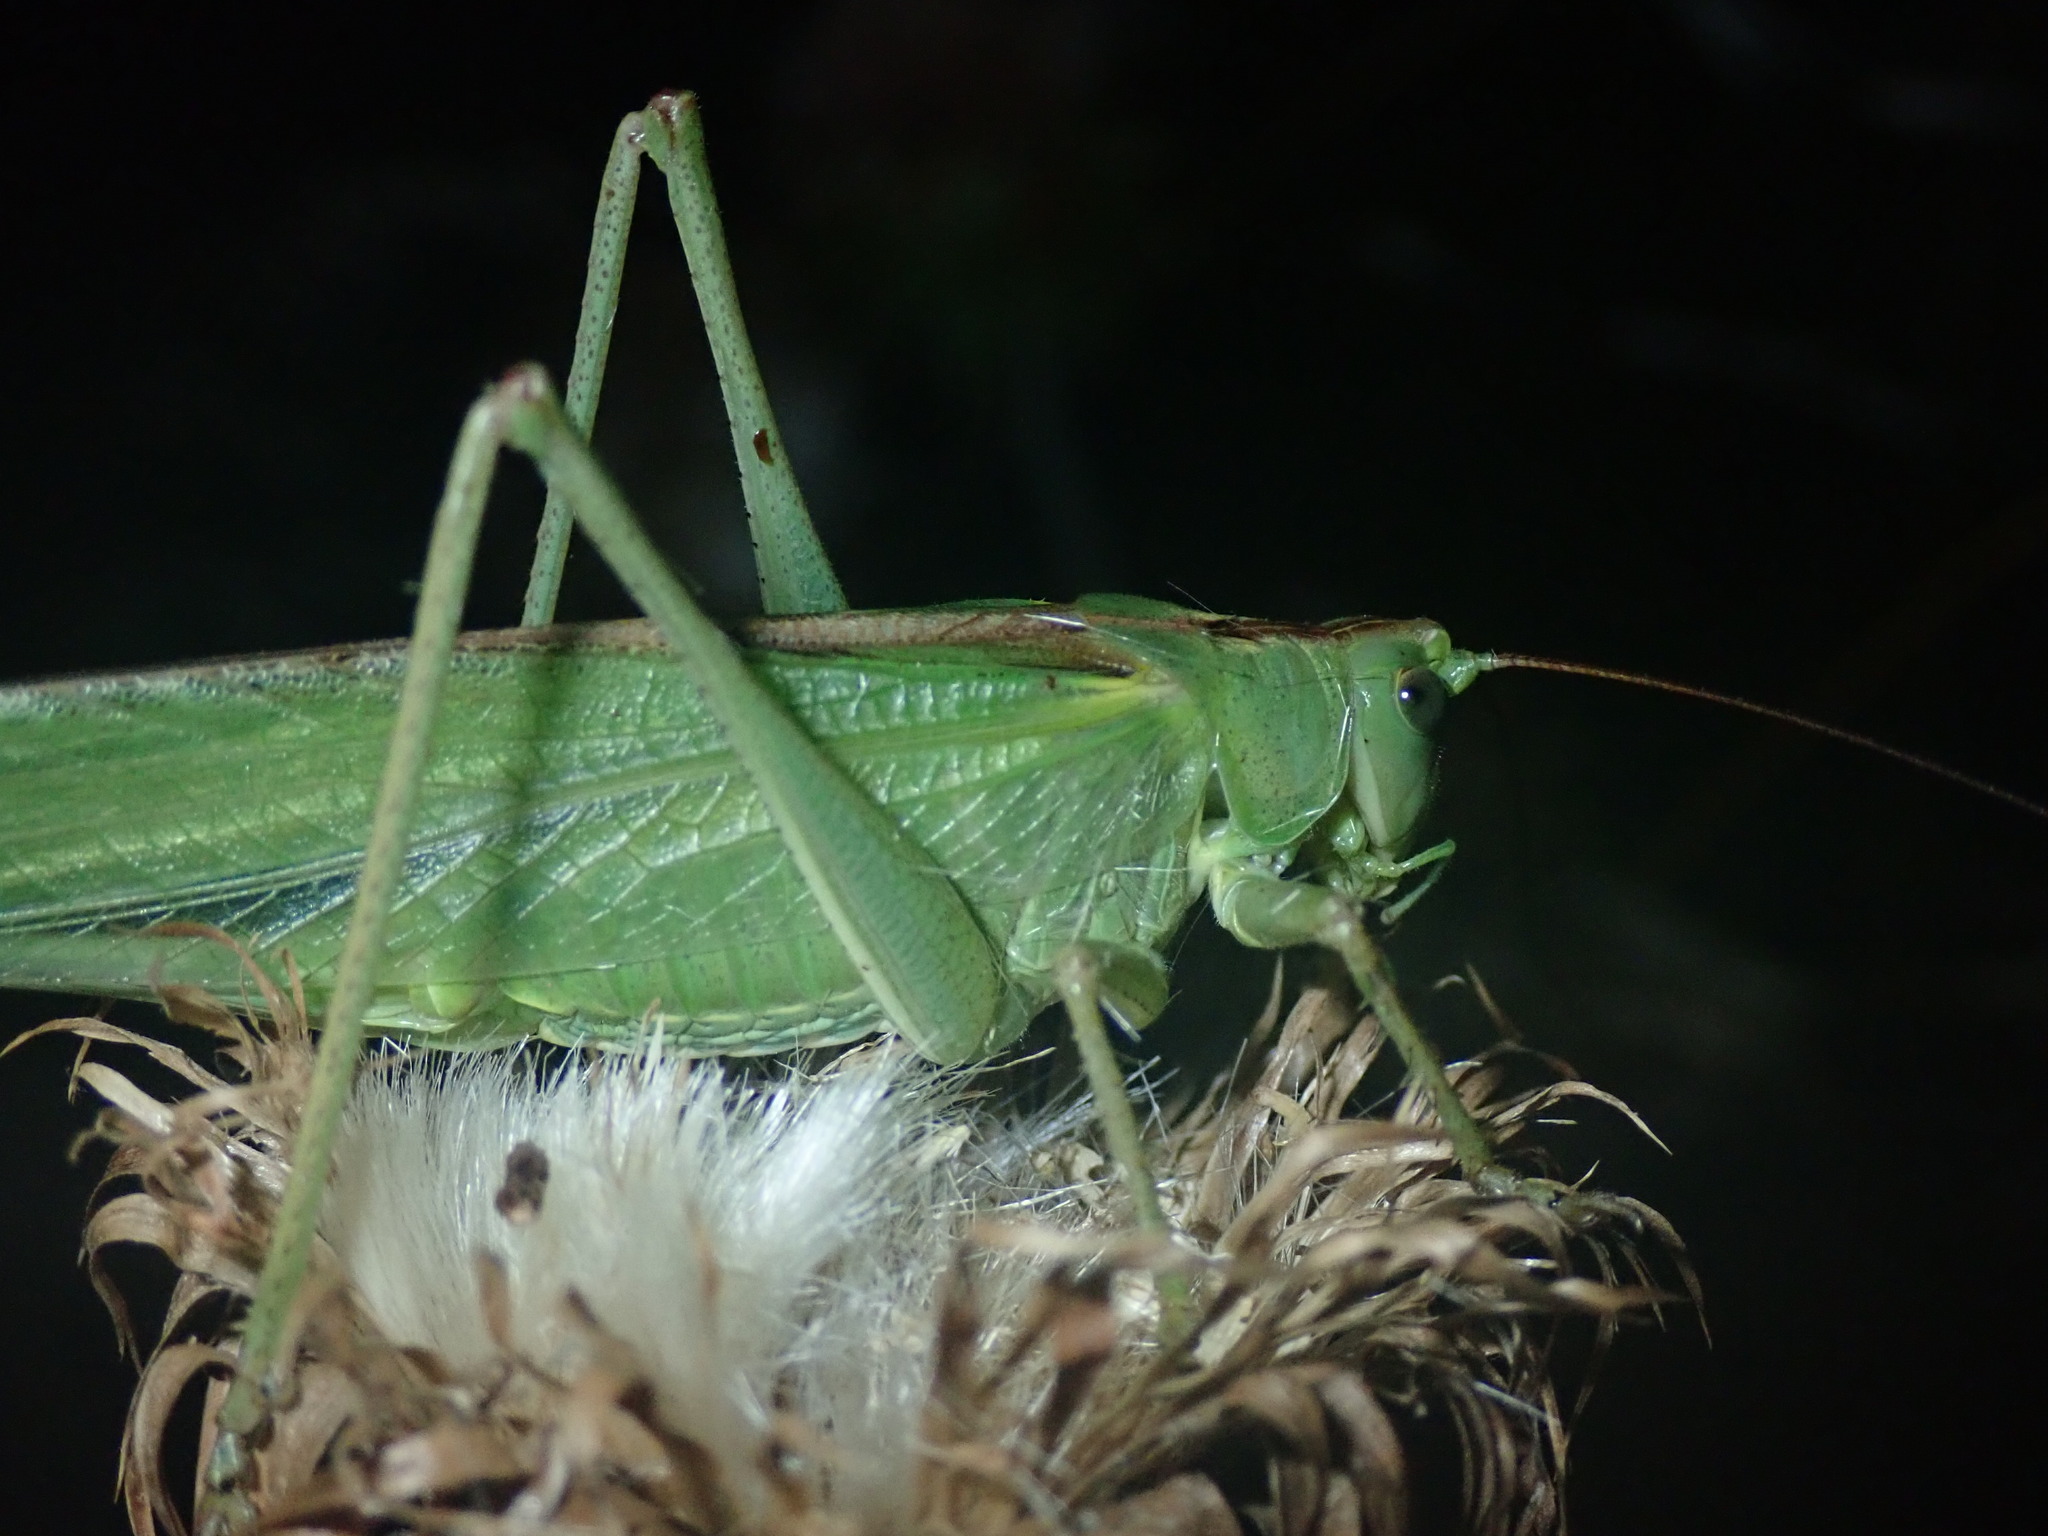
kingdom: Animalia
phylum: Arthropoda
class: Insecta
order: Orthoptera
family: Tettigoniidae
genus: Tettigonia
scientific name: Tettigonia viridissima
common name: Great green bush-cricket
